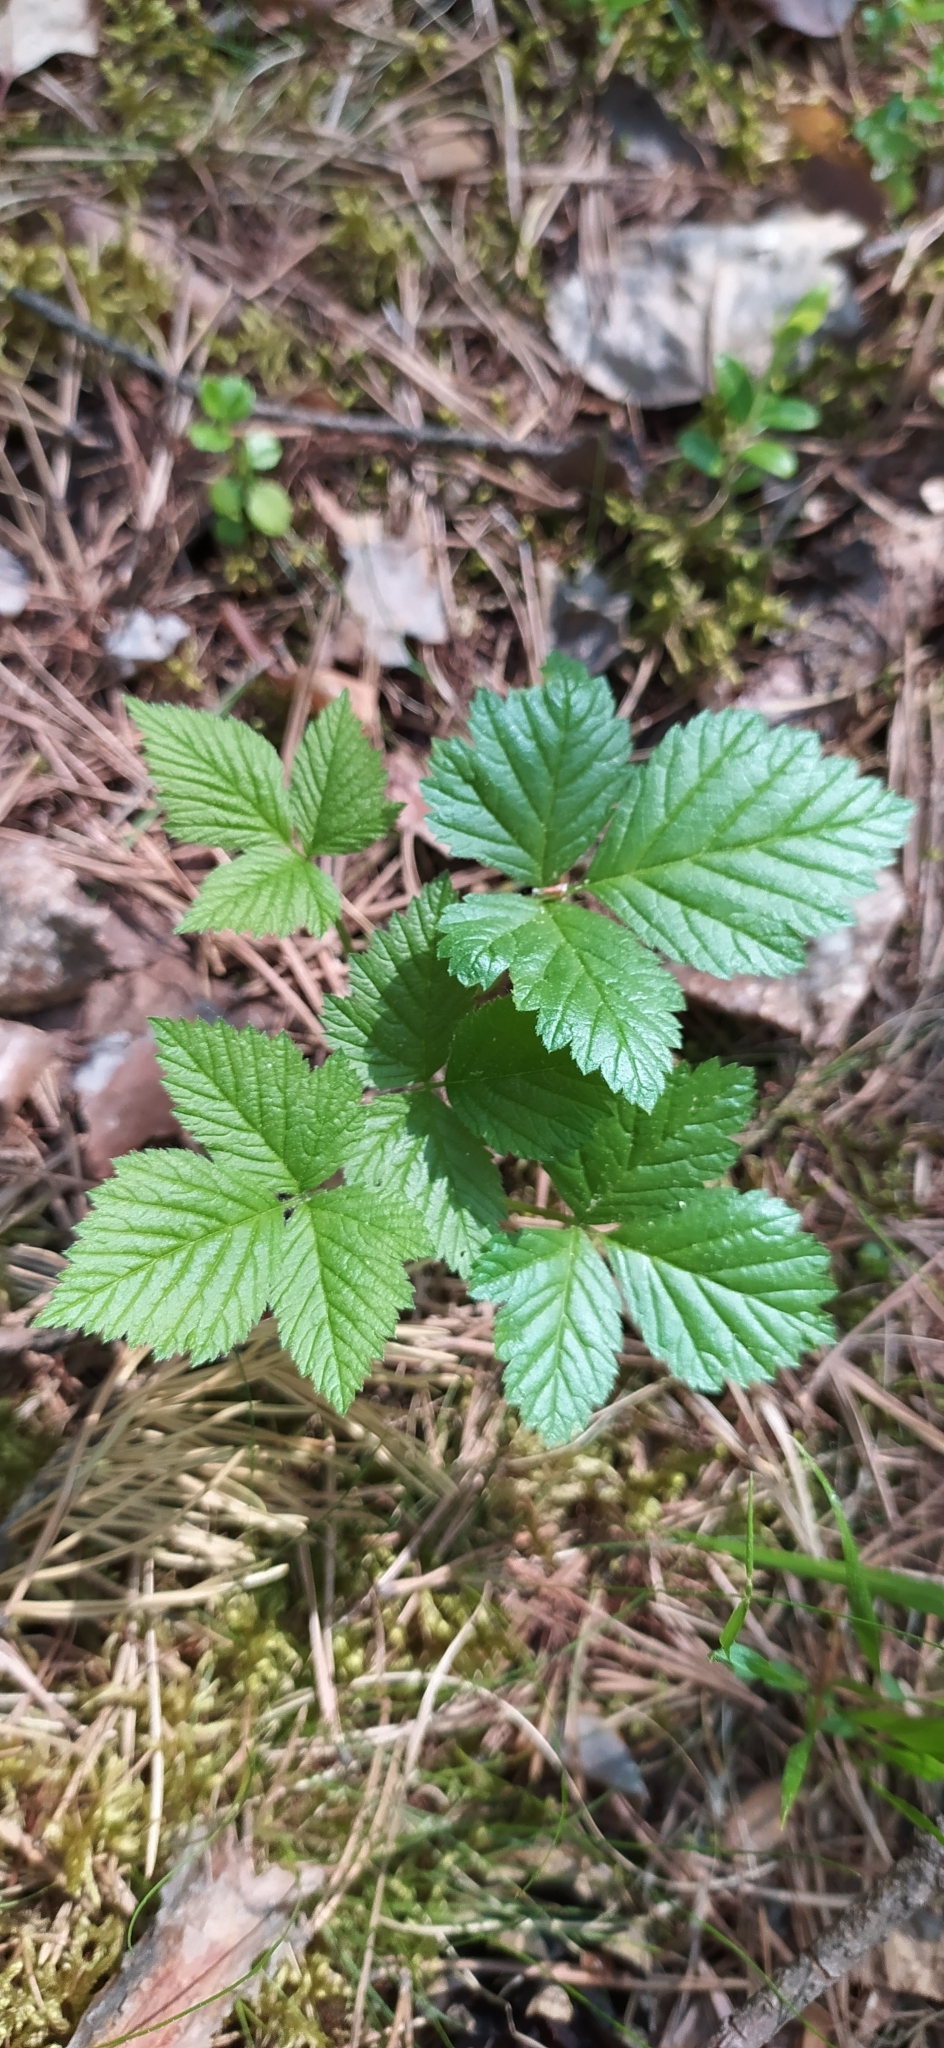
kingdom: Plantae
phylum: Tracheophyta
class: Magnoliopsida
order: Rosales
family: Rosaceae
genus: Rubus
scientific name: Rubus saxatilis
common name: Stone bramble
